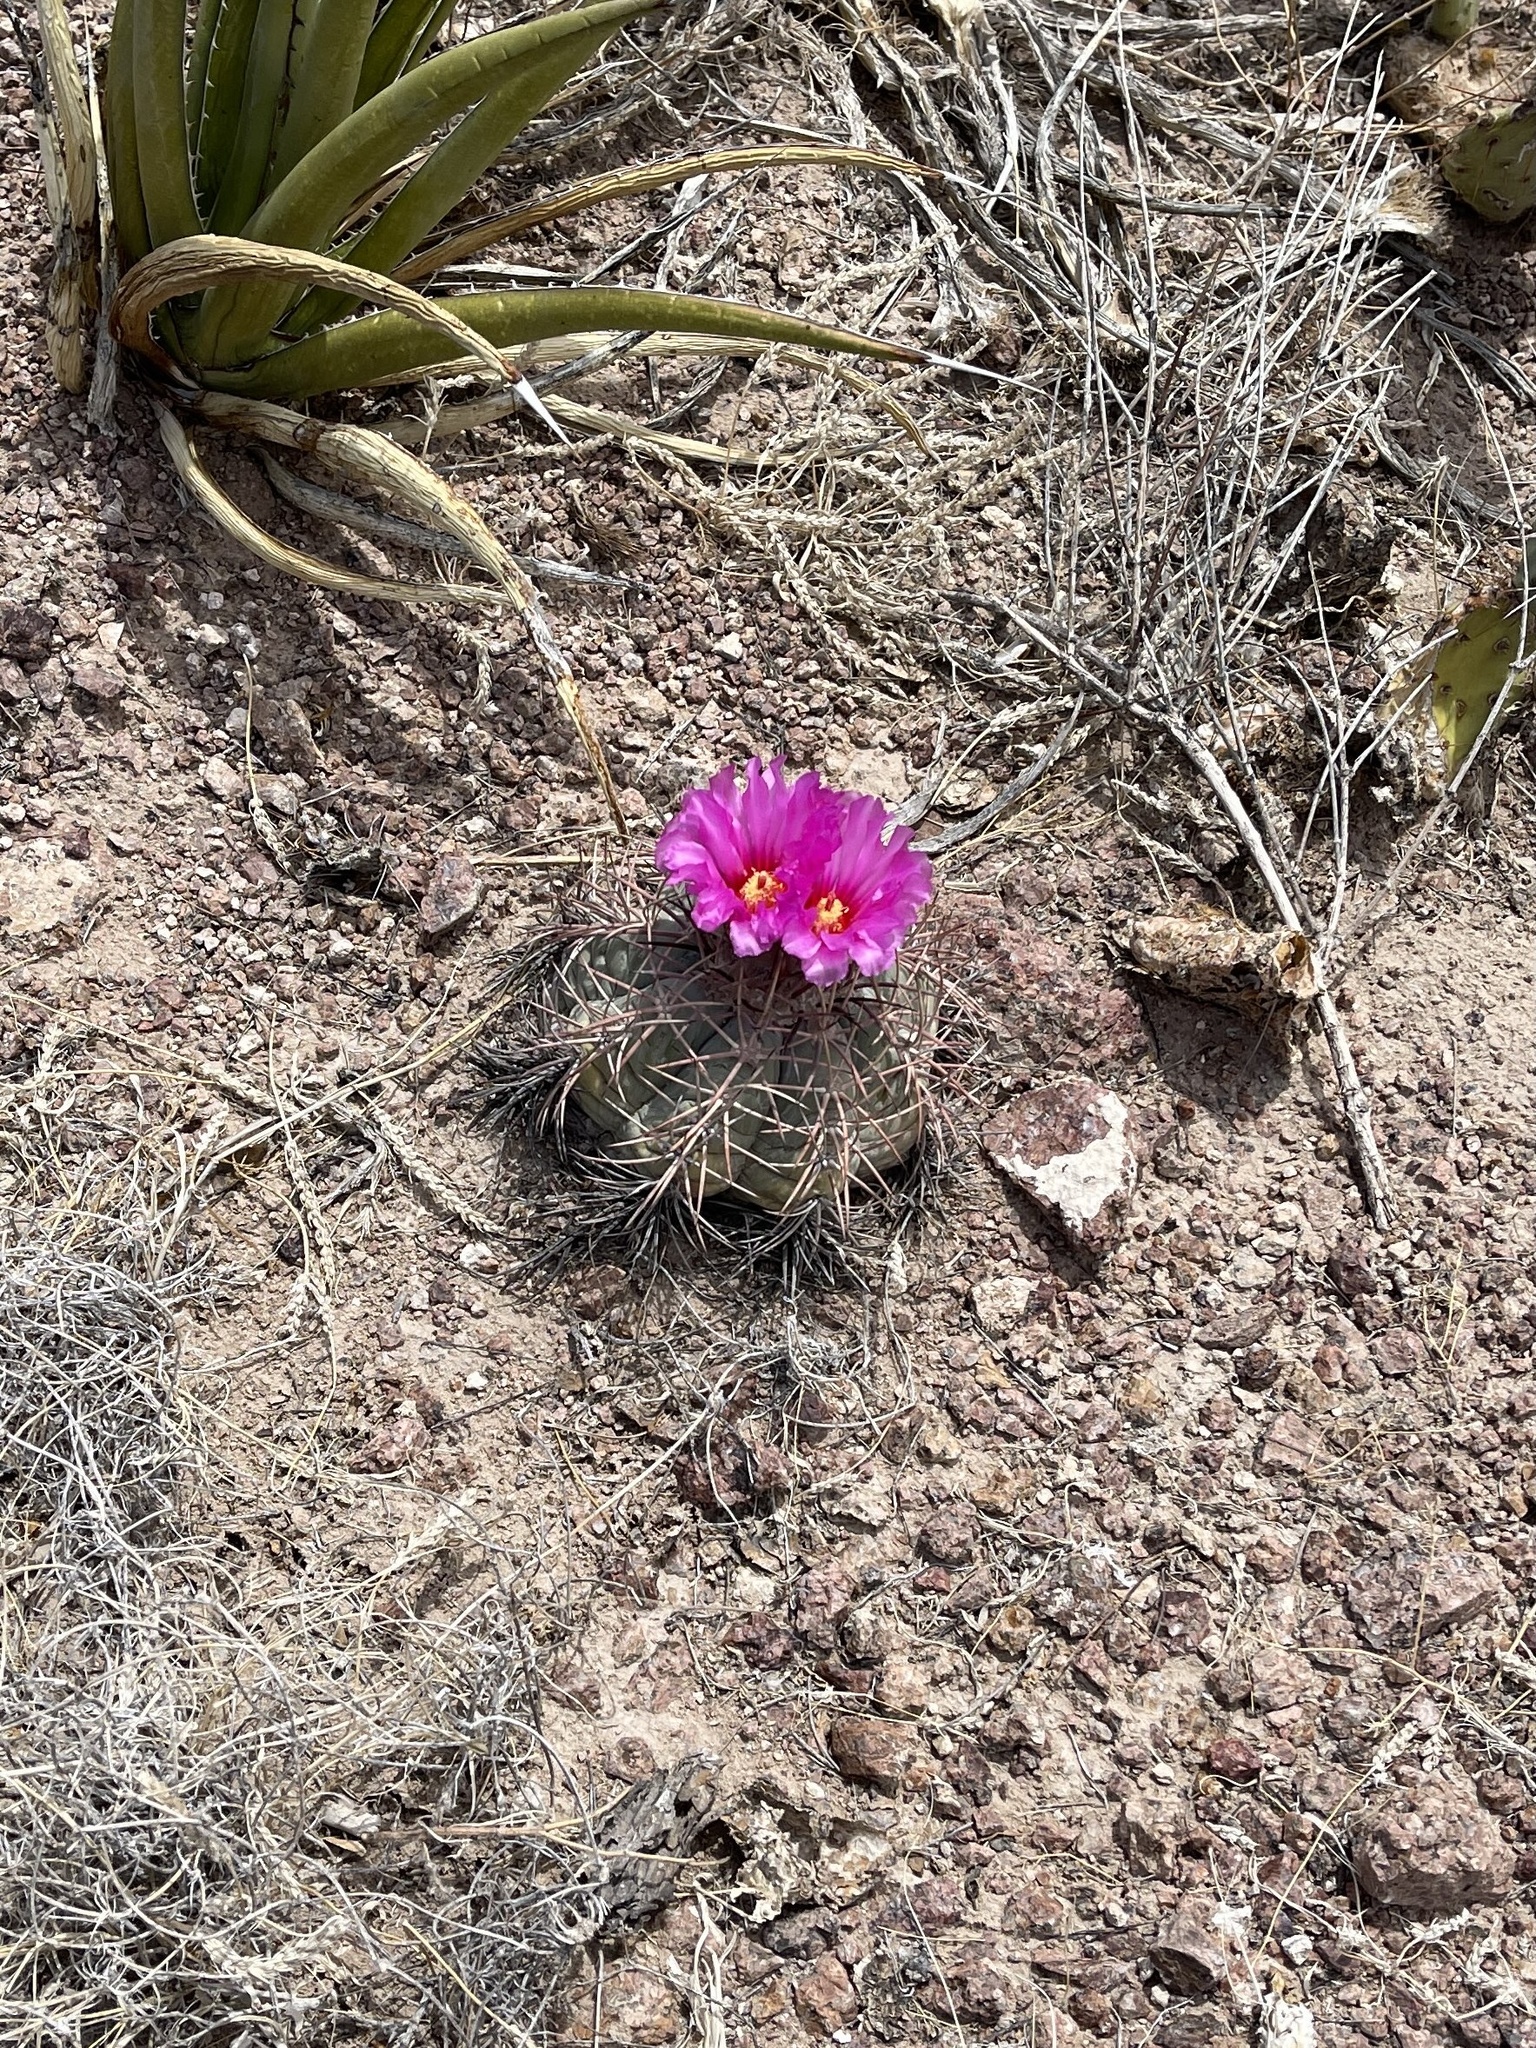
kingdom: Plantae
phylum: Tracheophyta
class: Magnoliopsida
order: Caryophyllales
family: Cactaceae
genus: Echinocactus
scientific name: Echinocactus horizonthalonius
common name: Devilshead
